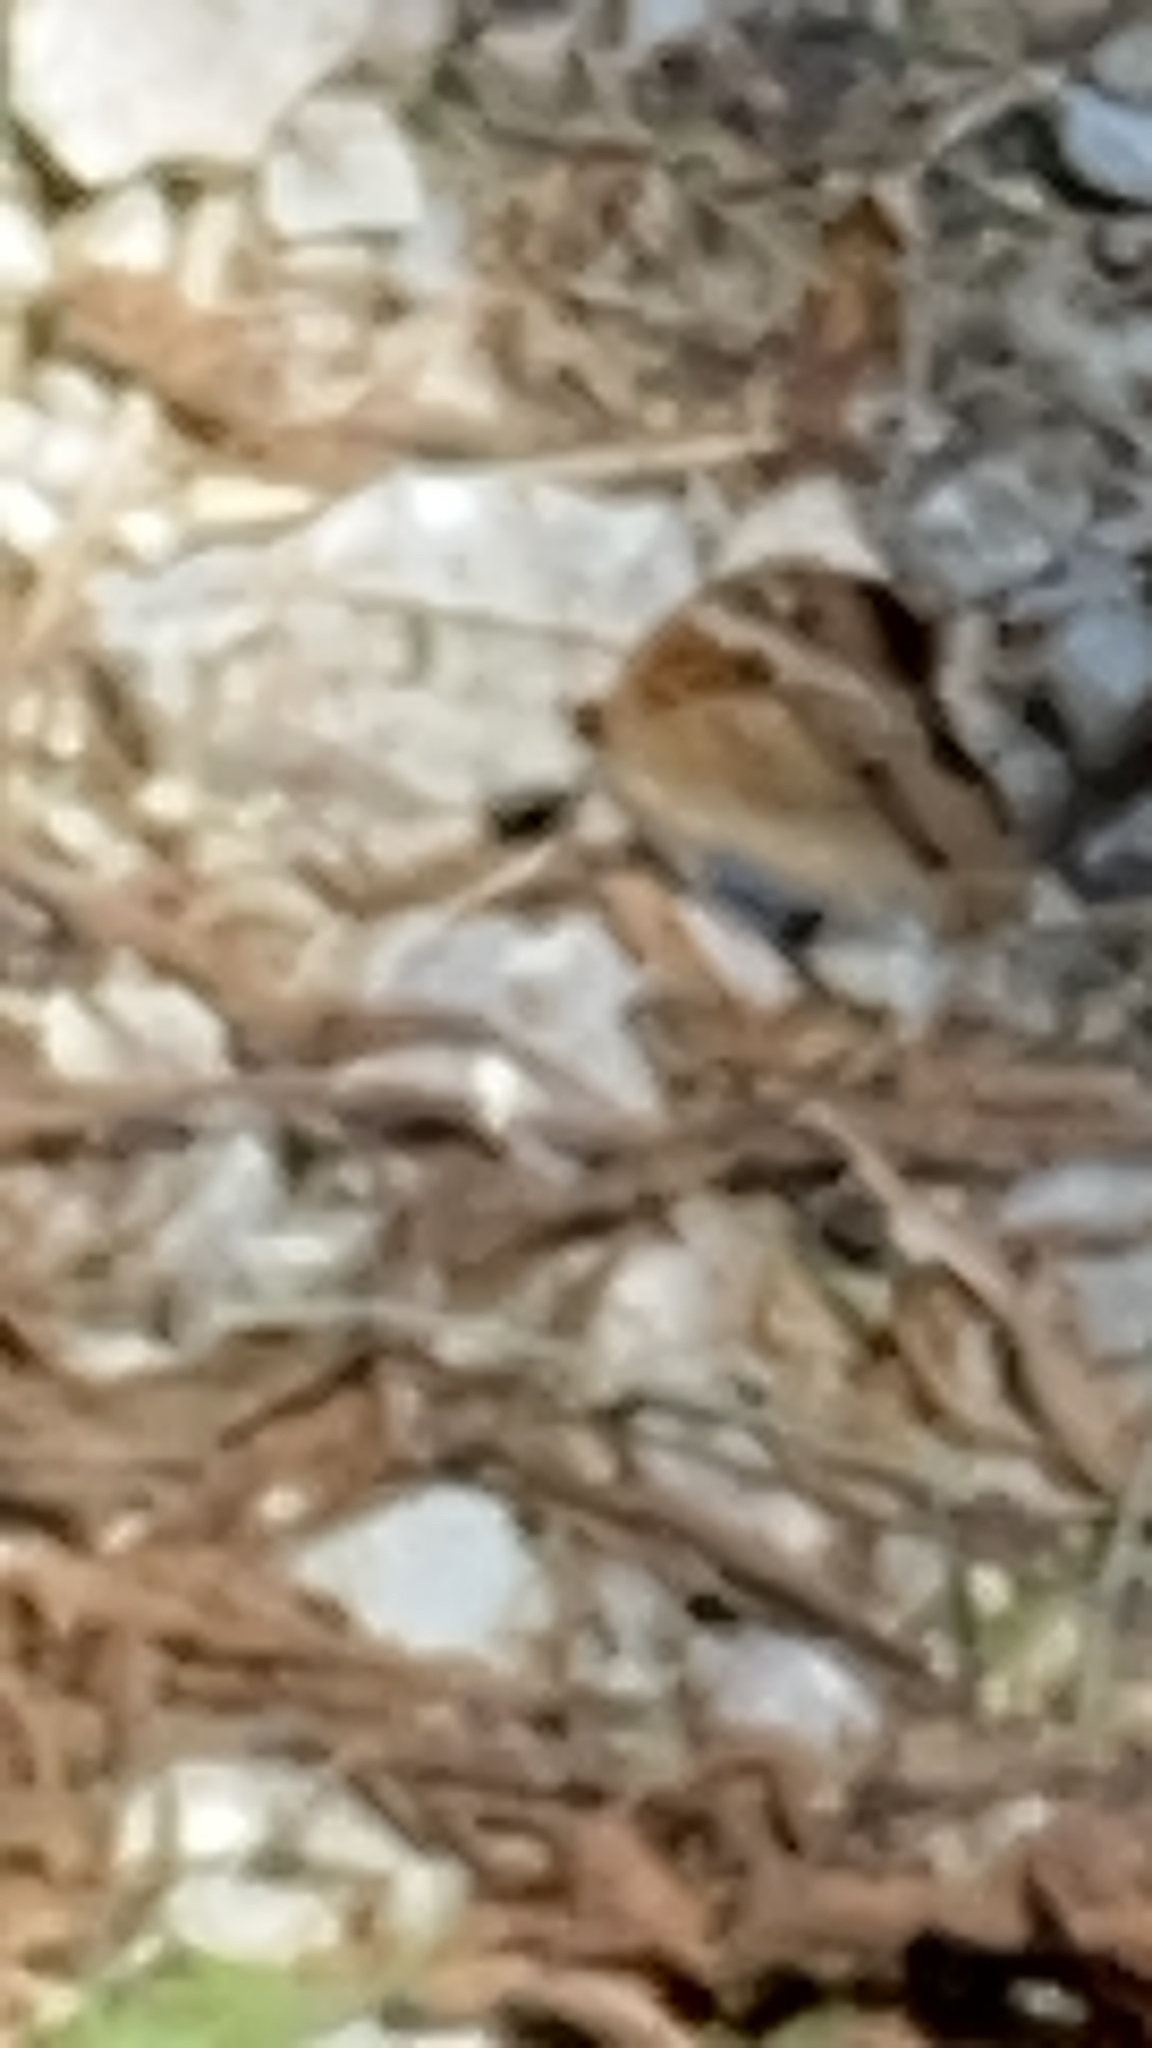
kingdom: Animalia
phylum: Arthropoda
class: Insecta
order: Lepidoptera
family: Nymphalidae
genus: Junonia
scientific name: Junonia coenia
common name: Common buckeye
